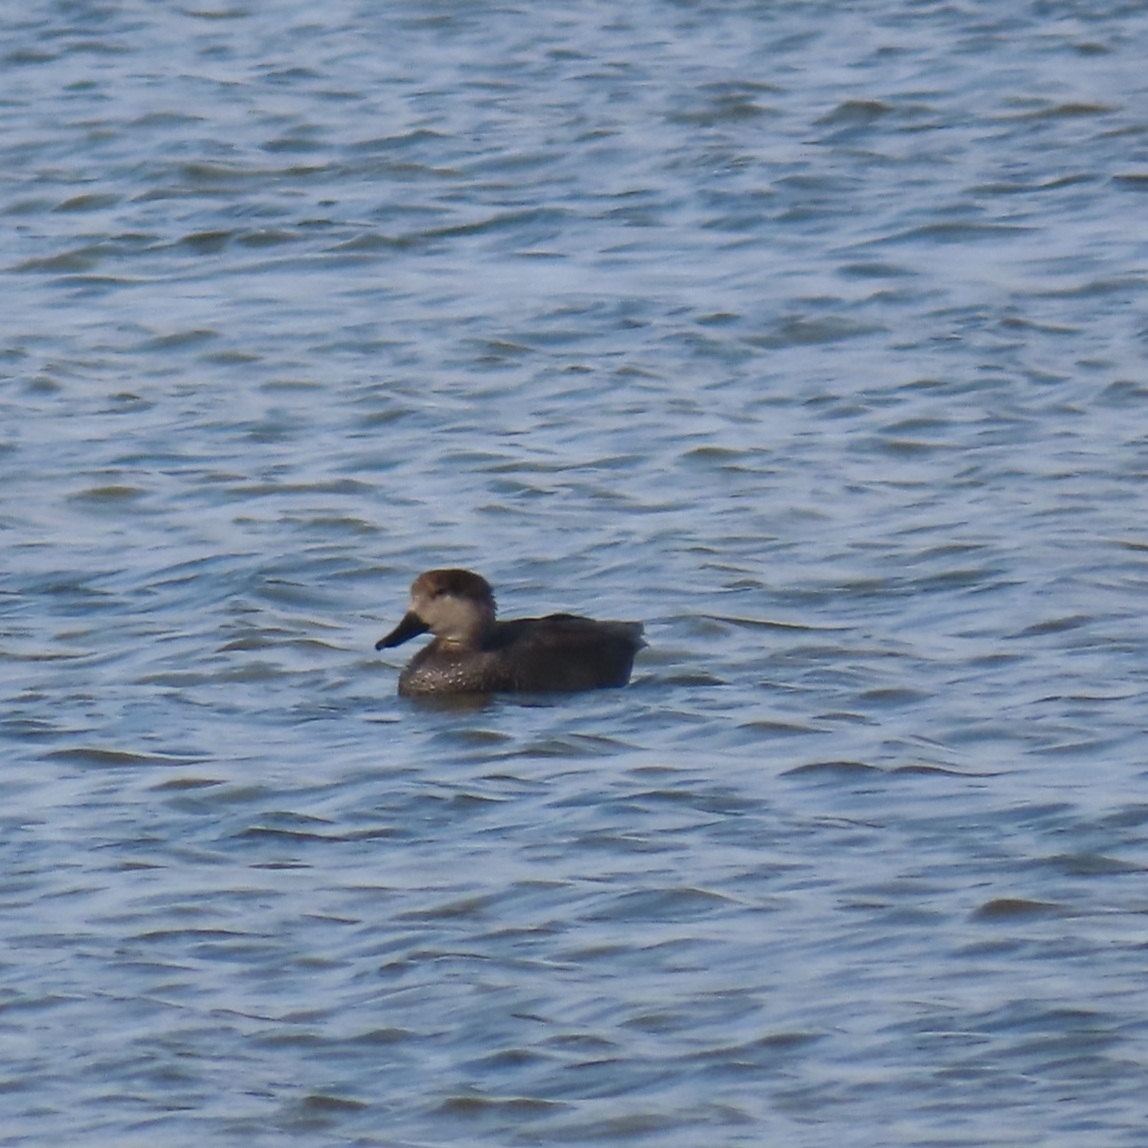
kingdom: Animalia
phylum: Chordata
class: Aves
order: Anseriformes
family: Anatidae
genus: Mareca
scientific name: Mareca strepera
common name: Gadwall
